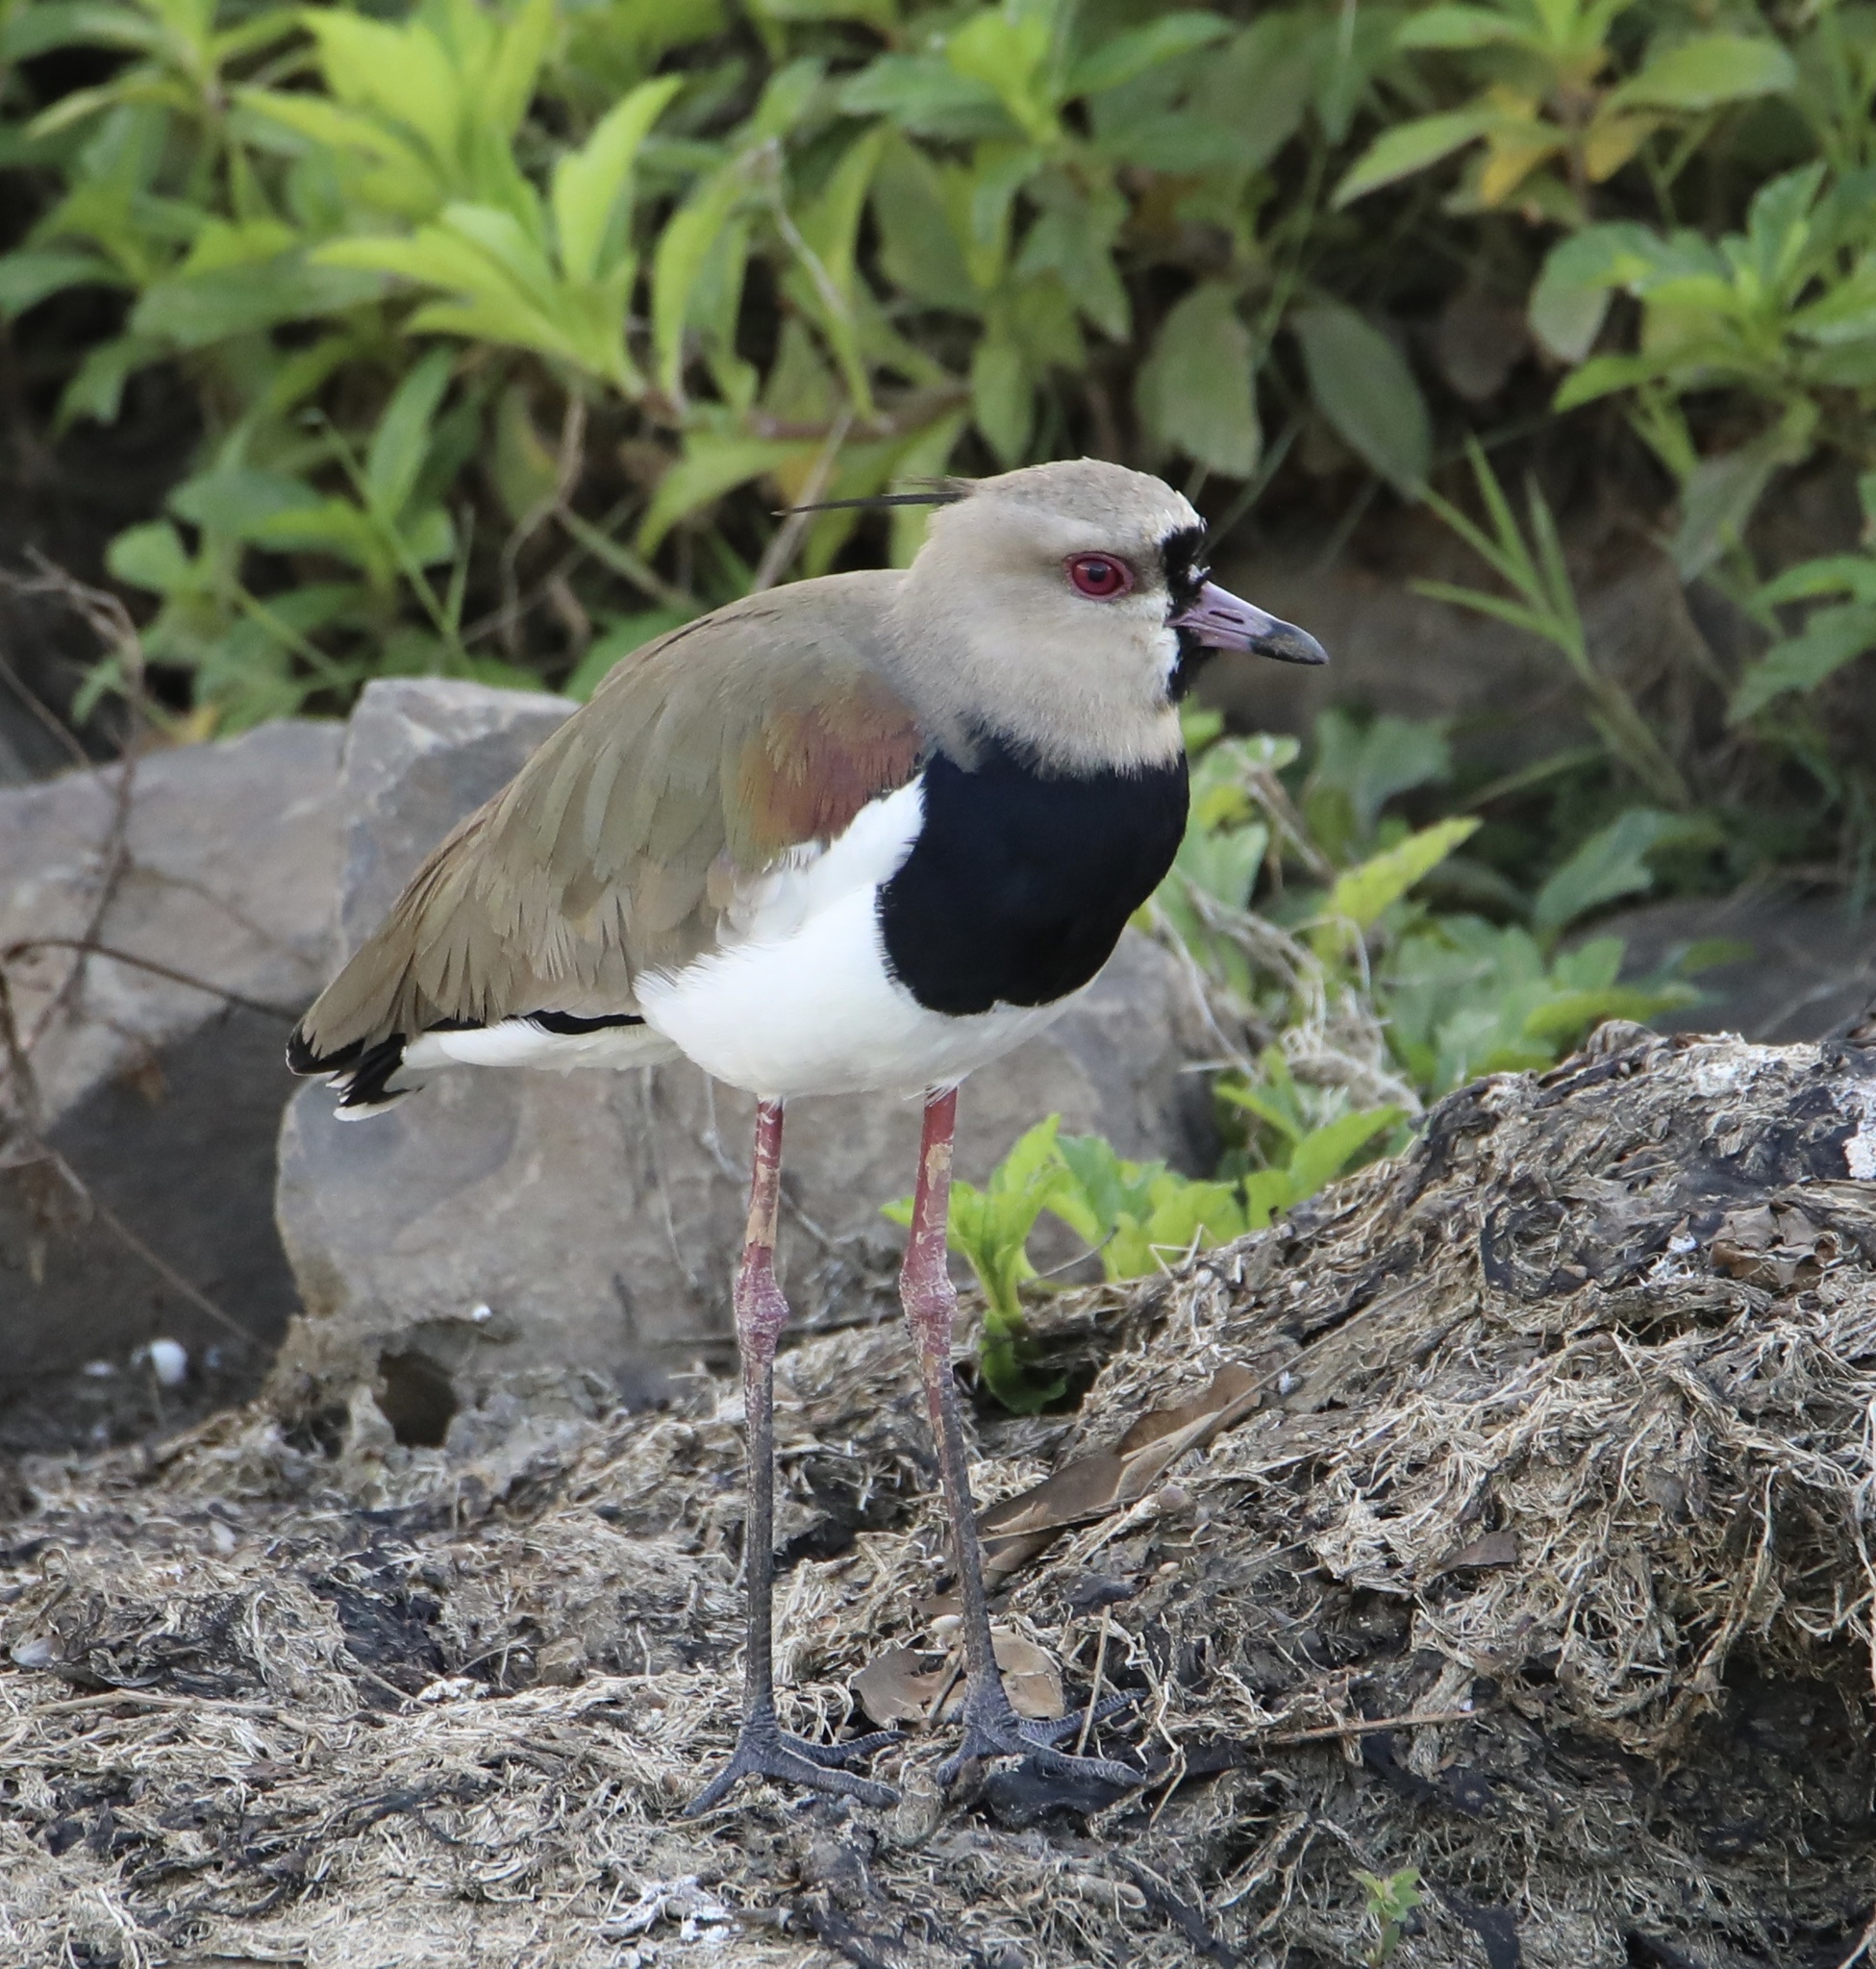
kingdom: Animalia
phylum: Chordata
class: Aves
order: Charadriiformes
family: Charadriidae
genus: Vanellus
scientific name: Vanellus chilensis
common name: Southern lapwing
